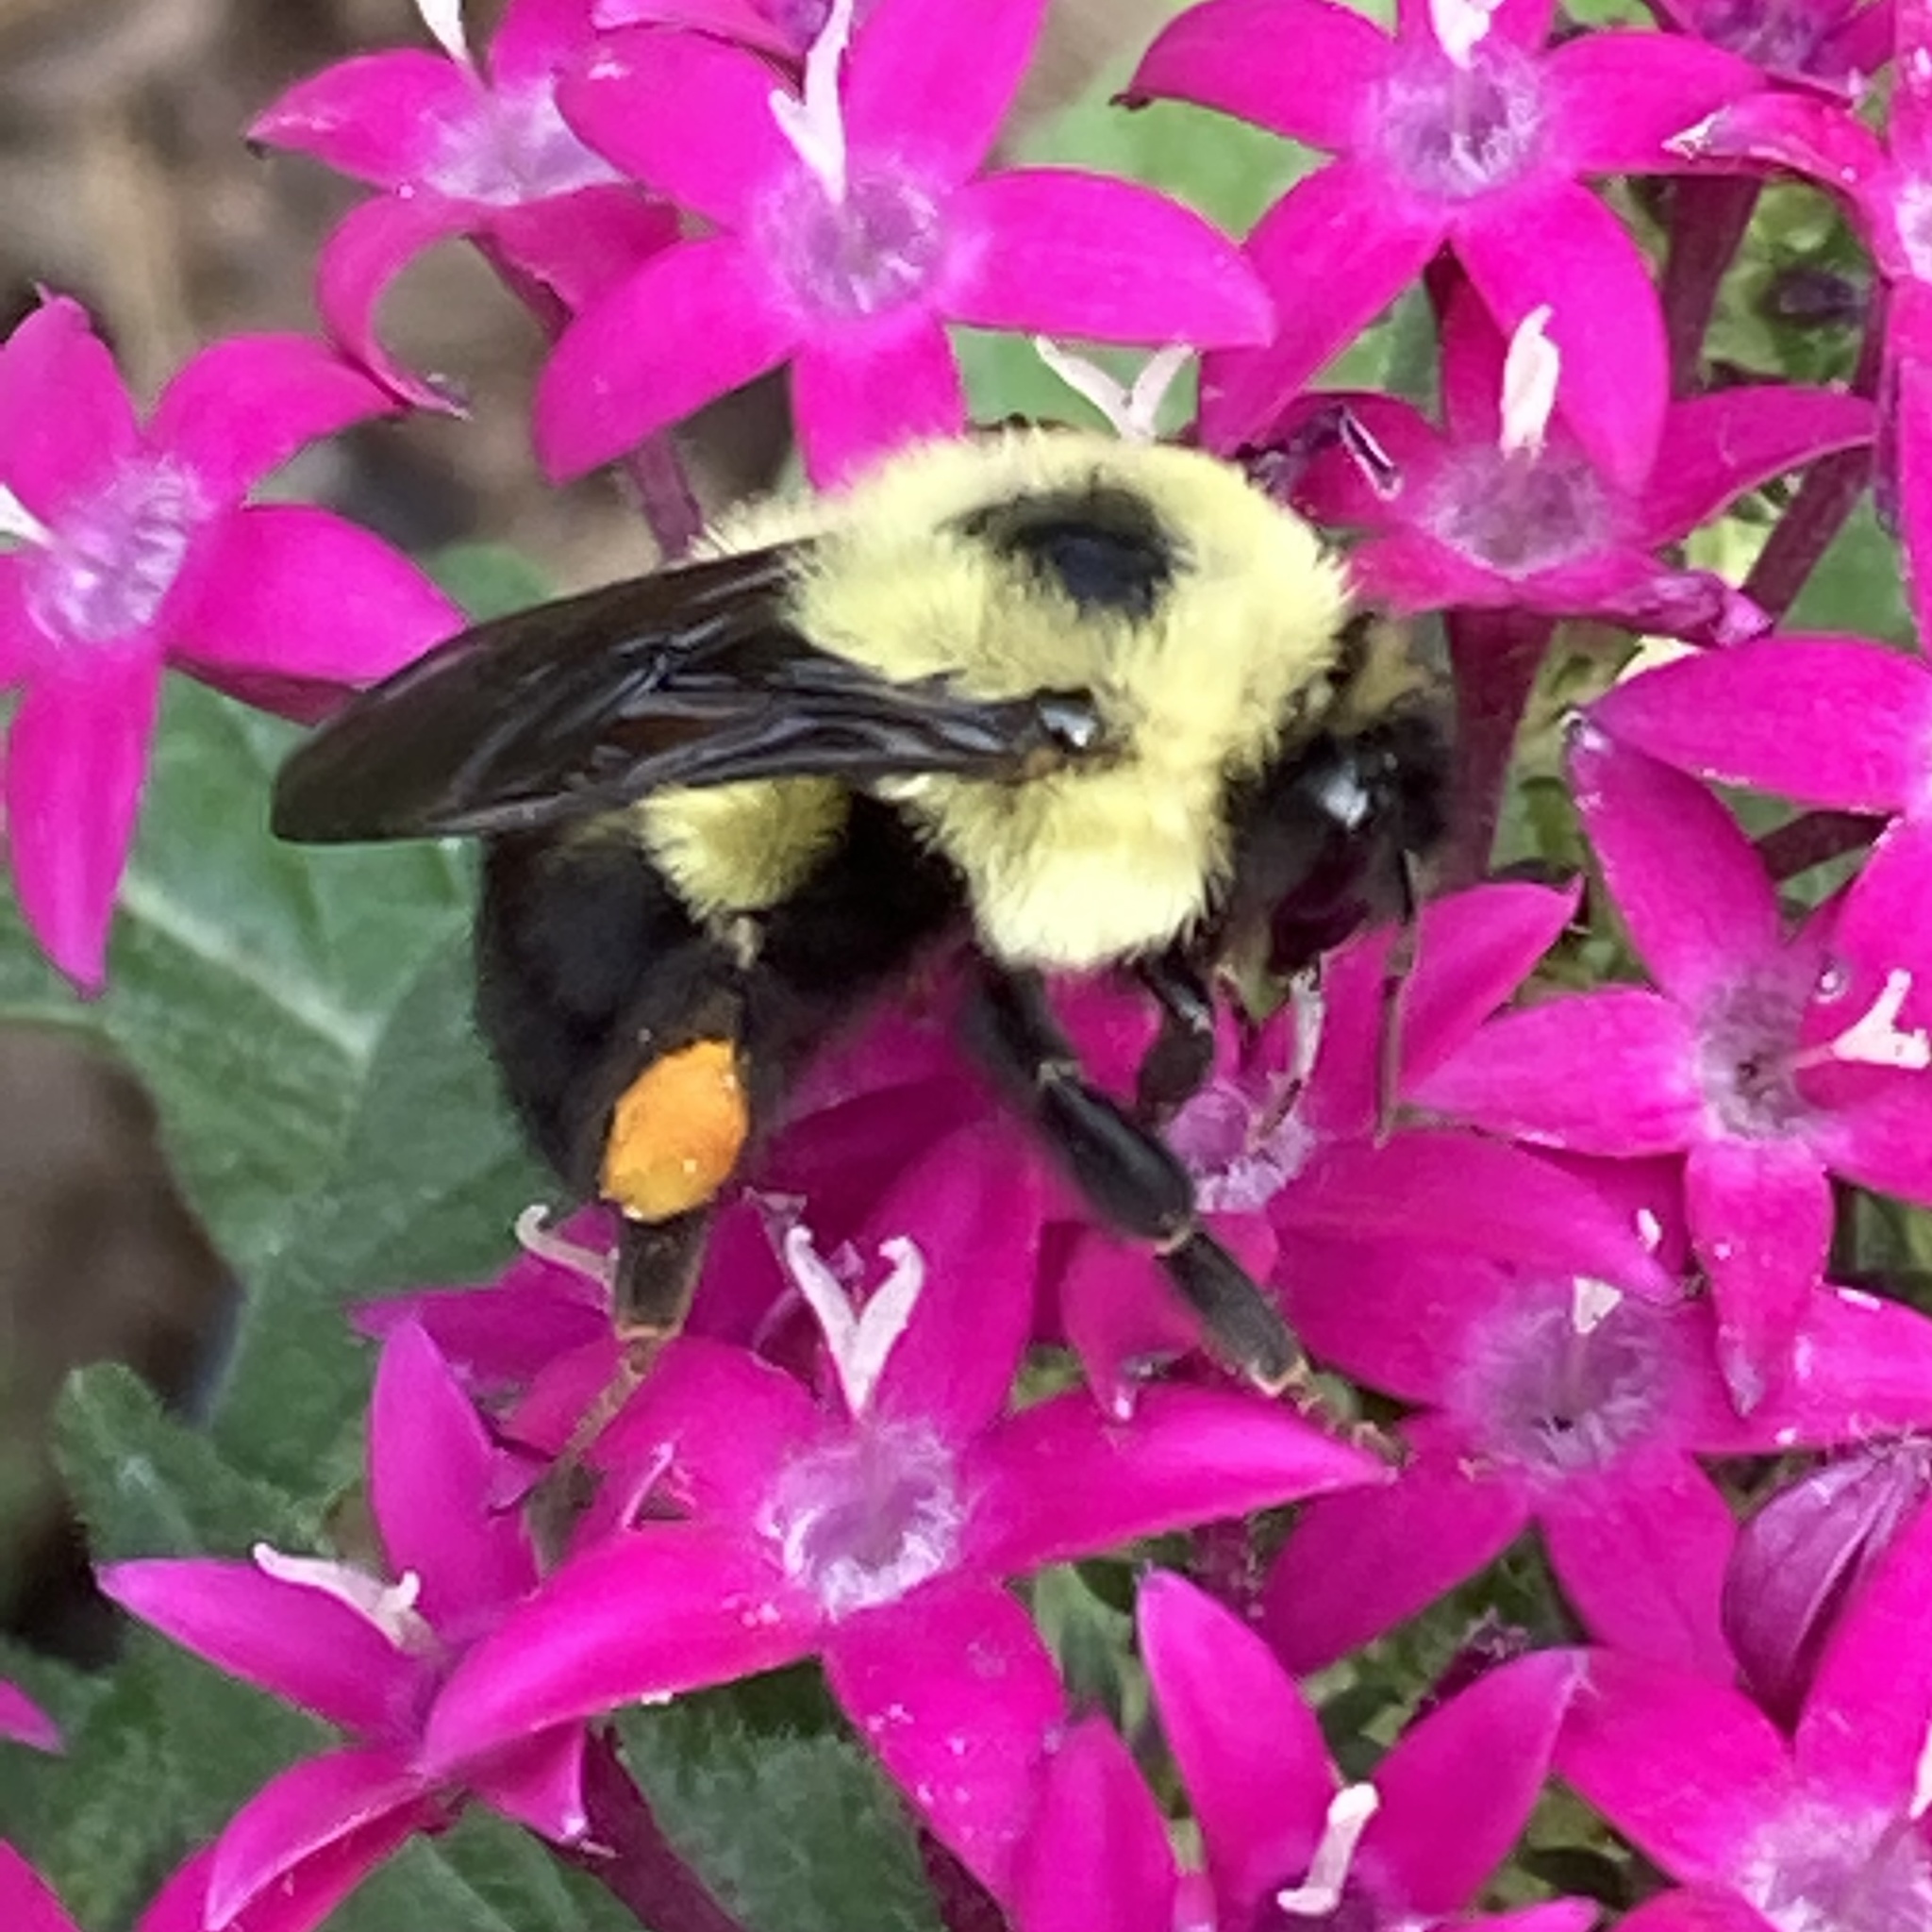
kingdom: Animalia
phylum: Arthropoda
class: Insecta
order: Hymenoptera
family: Apidae
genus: Bombus
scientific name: Bombus bimaculatus
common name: Two-spotted bumble bee
